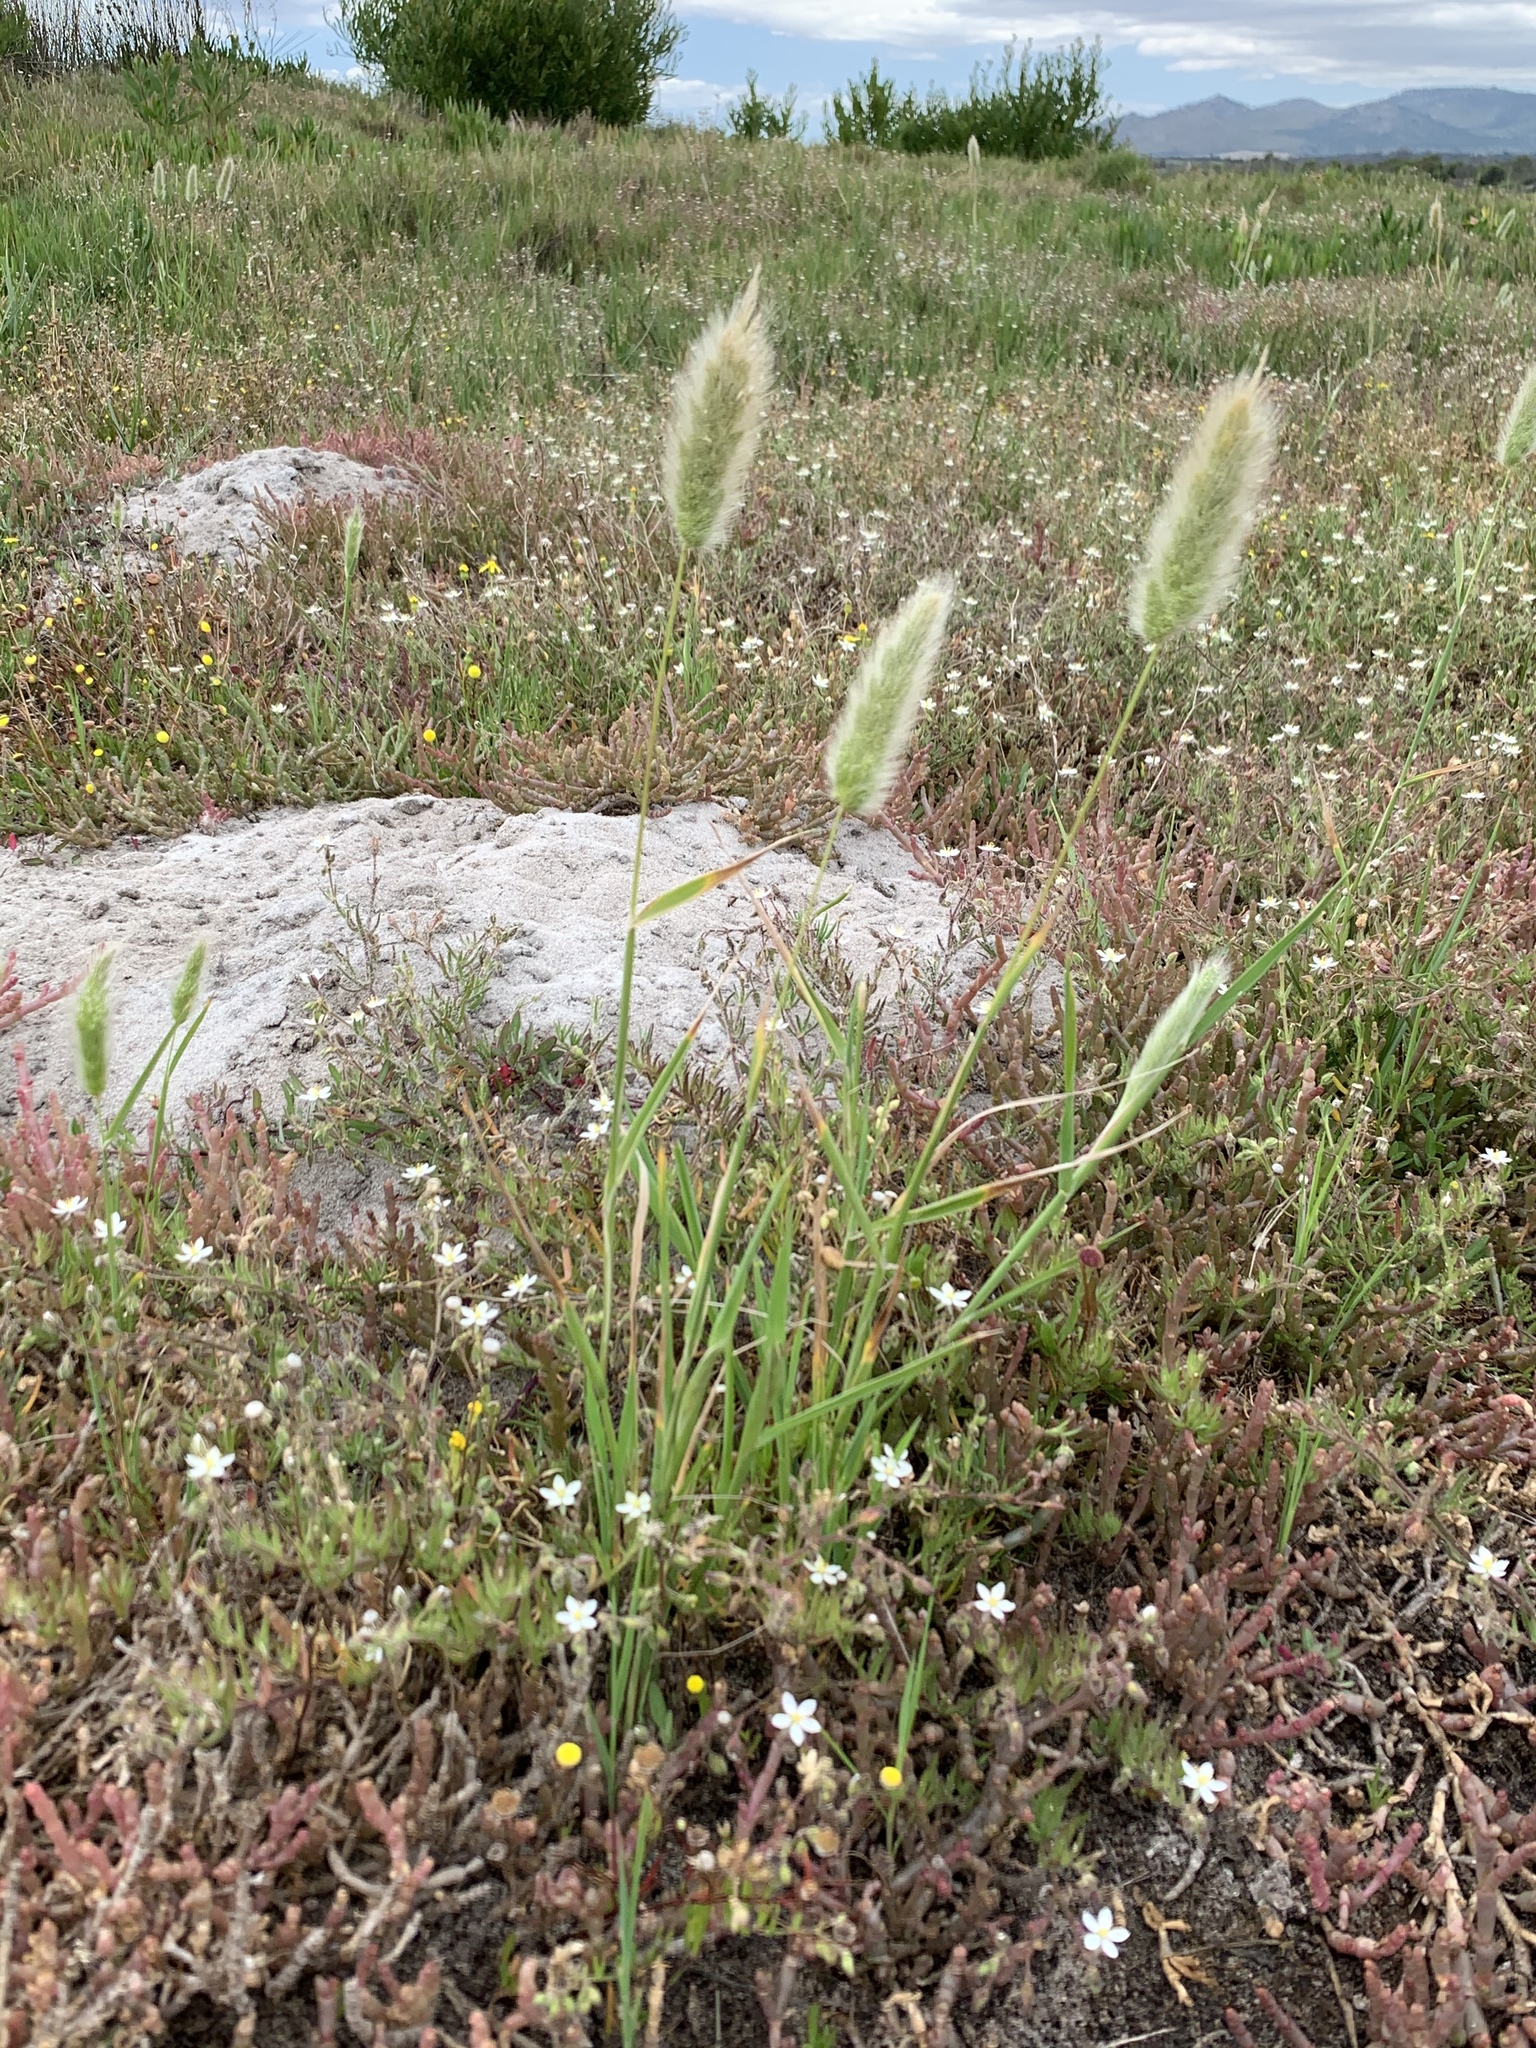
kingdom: Plantae
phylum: Tracheophyta
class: Liliopsida
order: Poales
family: Poaceae
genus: Polypogon
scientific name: Polypogon monspeliensis
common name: Annual rabbitsfoot grass
